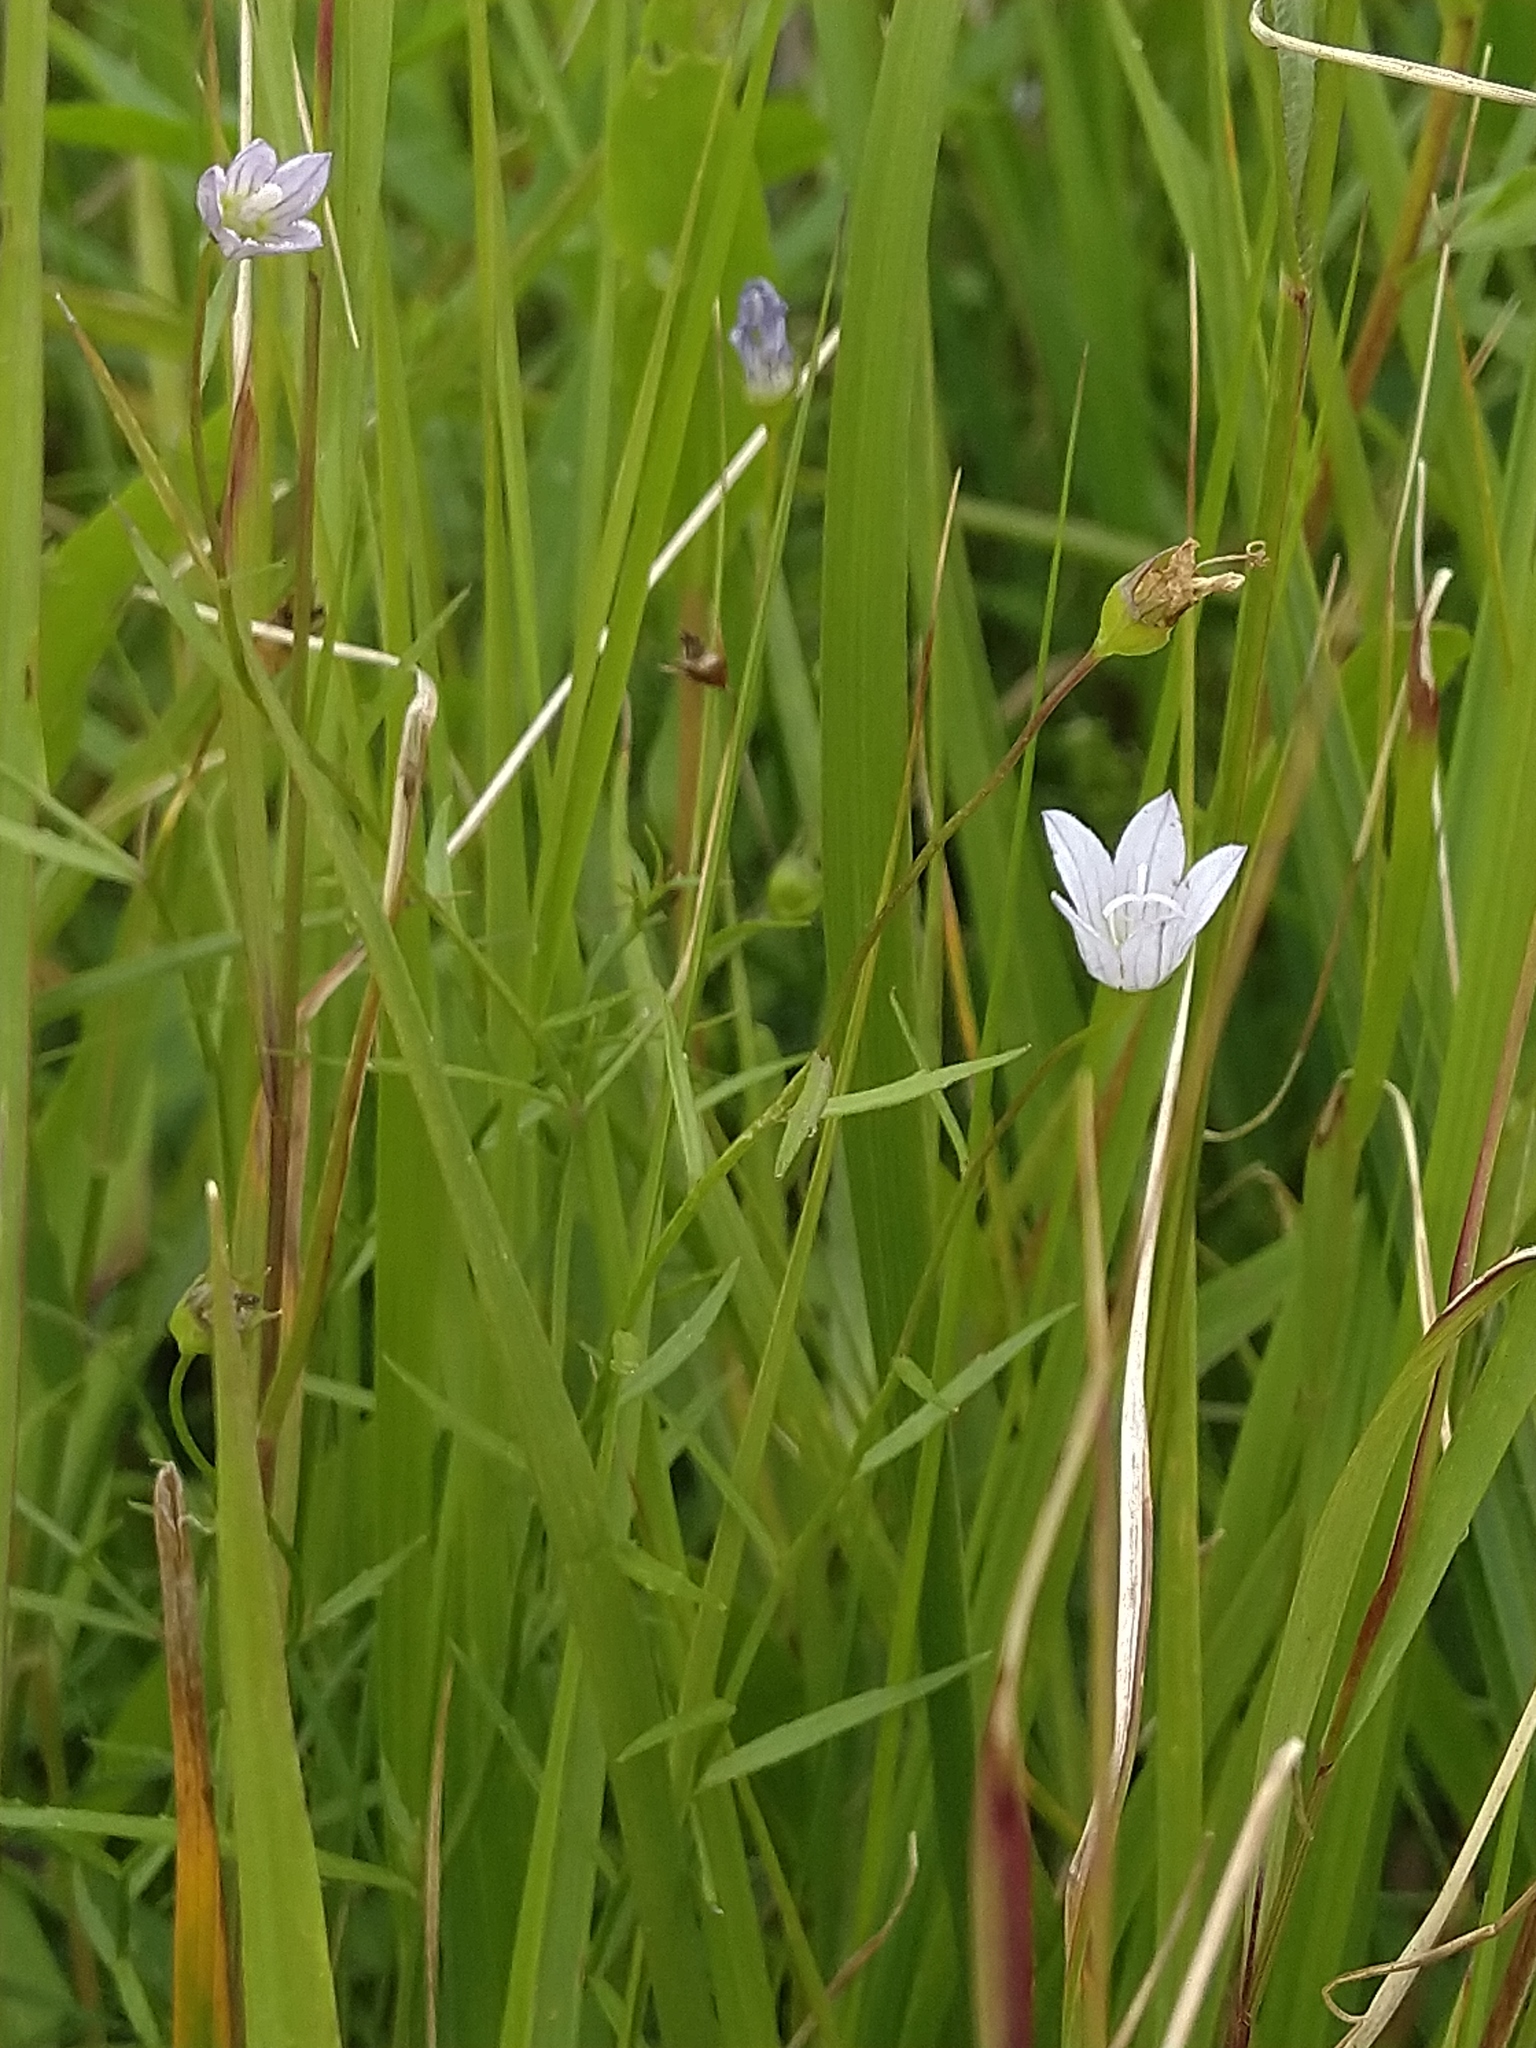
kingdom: Plantae
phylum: Tracheophyta
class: Magnoliopsida
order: Asterales
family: Campanulaceae
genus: Palustricodon
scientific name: Palustricodon aparinoides
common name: Bedstraw bellflower
